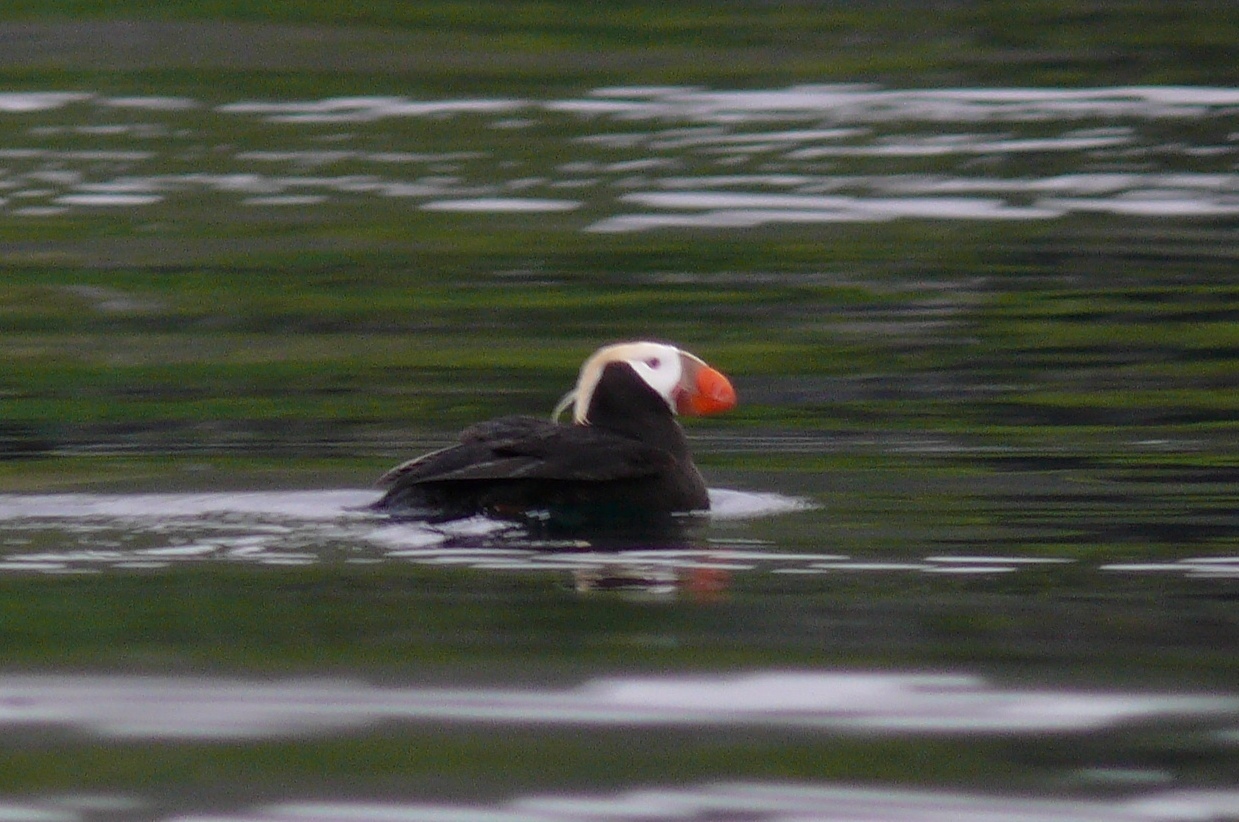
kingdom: Animalia
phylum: Chordata
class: Aves
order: Charadriiformes
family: Alcidae
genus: Fratercula
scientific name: Fratercula cirrhata
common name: Tufted puffin
